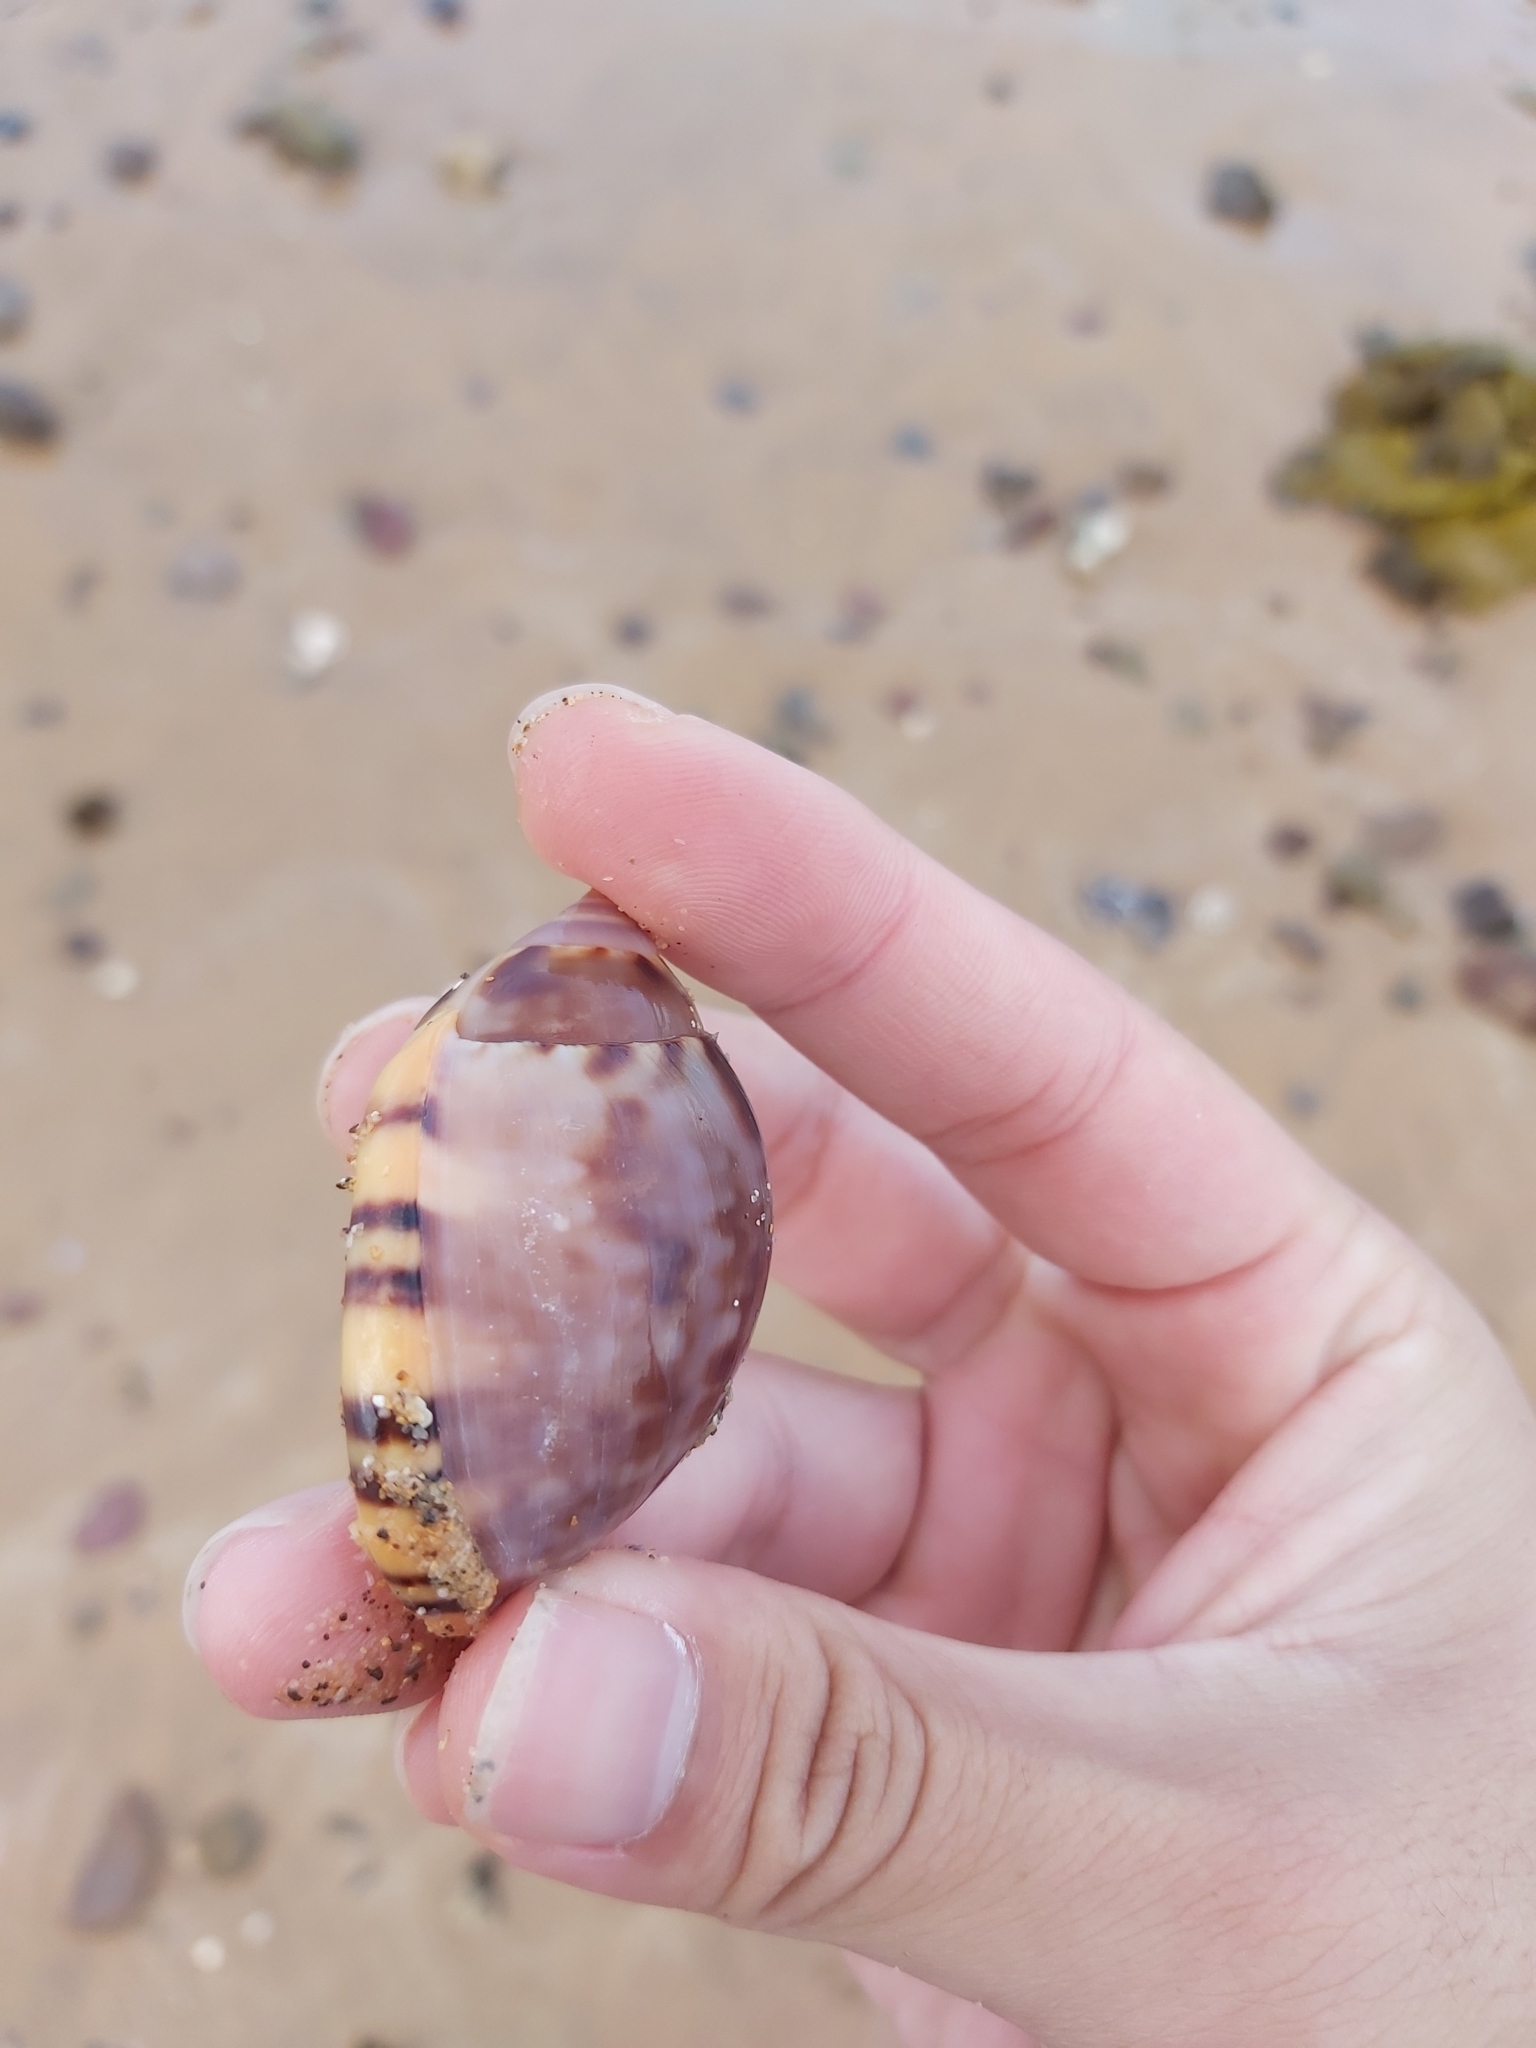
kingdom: Animalia
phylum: Mollusca
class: Gastropoda
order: Littorinimorpha
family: Cassidae
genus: Semicassis
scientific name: Semicassis labiata
